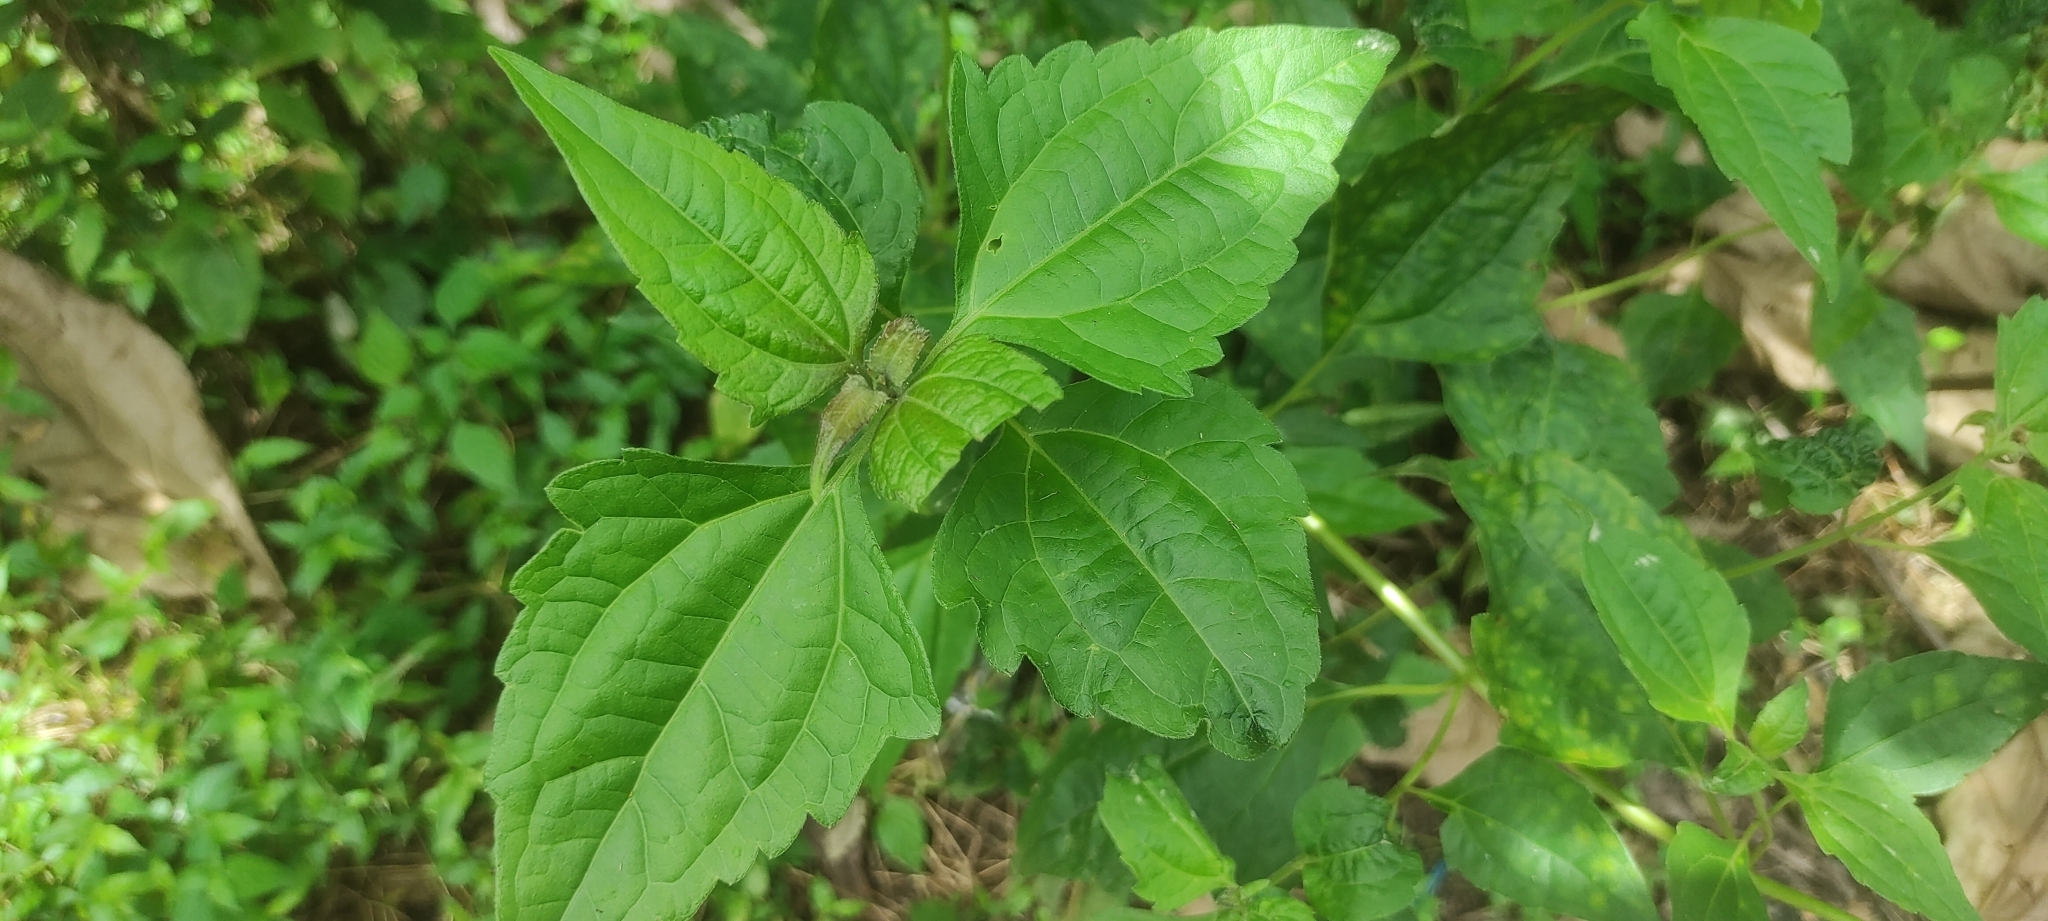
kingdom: Plantae
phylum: Tracheophyta
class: Magnoliopsida
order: Asterales
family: Asteraceae
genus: Chromolaena
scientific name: Chromolaena odorata
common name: Siamweed
